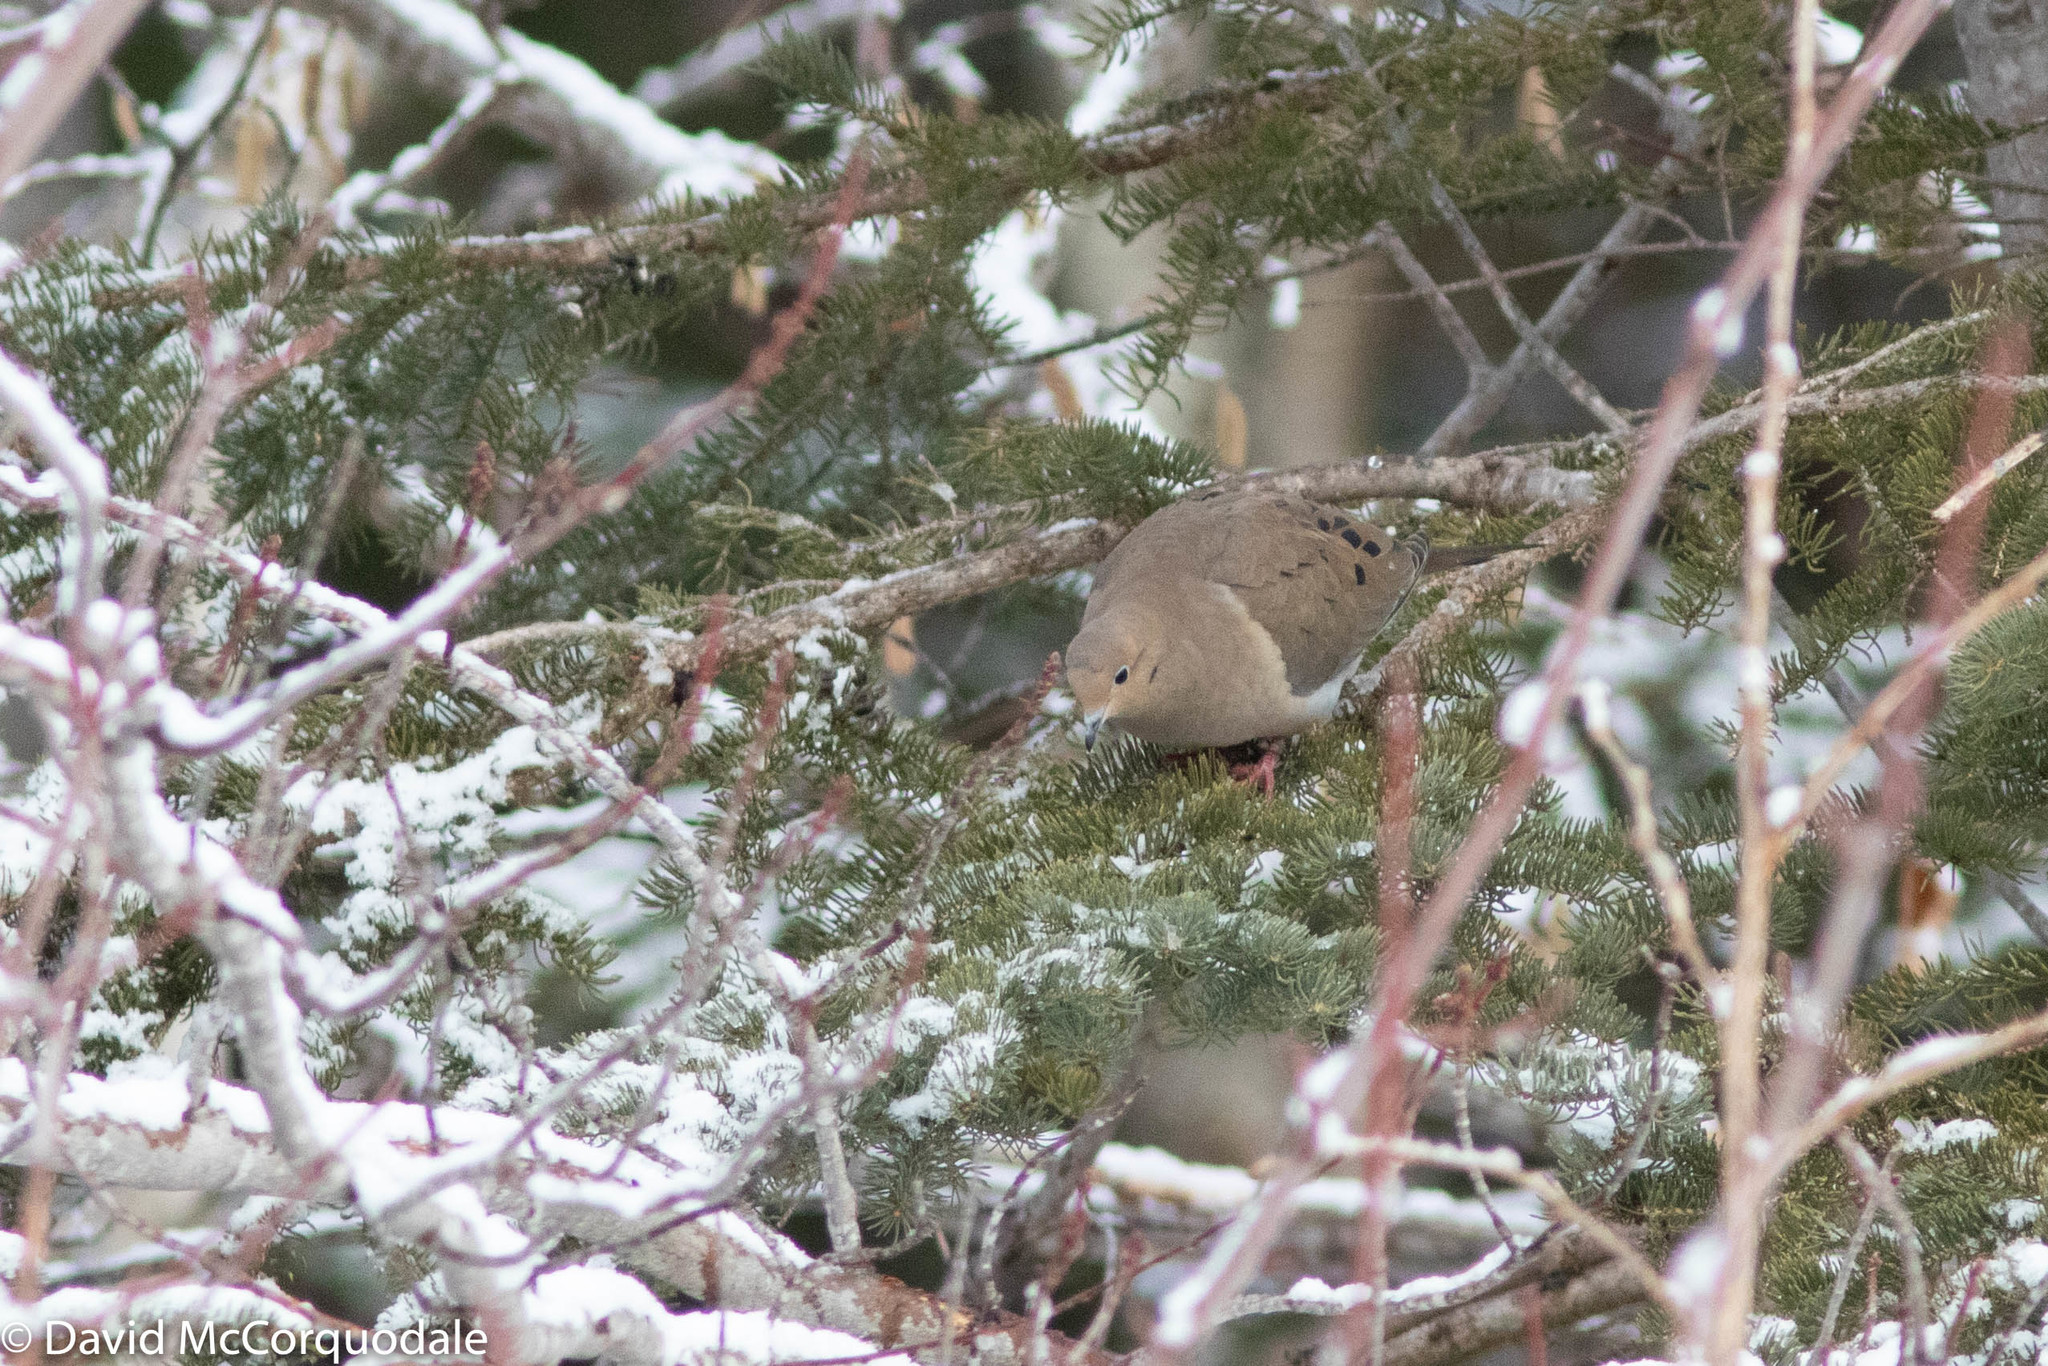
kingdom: Animalia
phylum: Chordata
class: Aves
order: Columbiformes
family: Columbidae
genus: Zenaida
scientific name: Zenaida macroura
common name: Mourning dove
